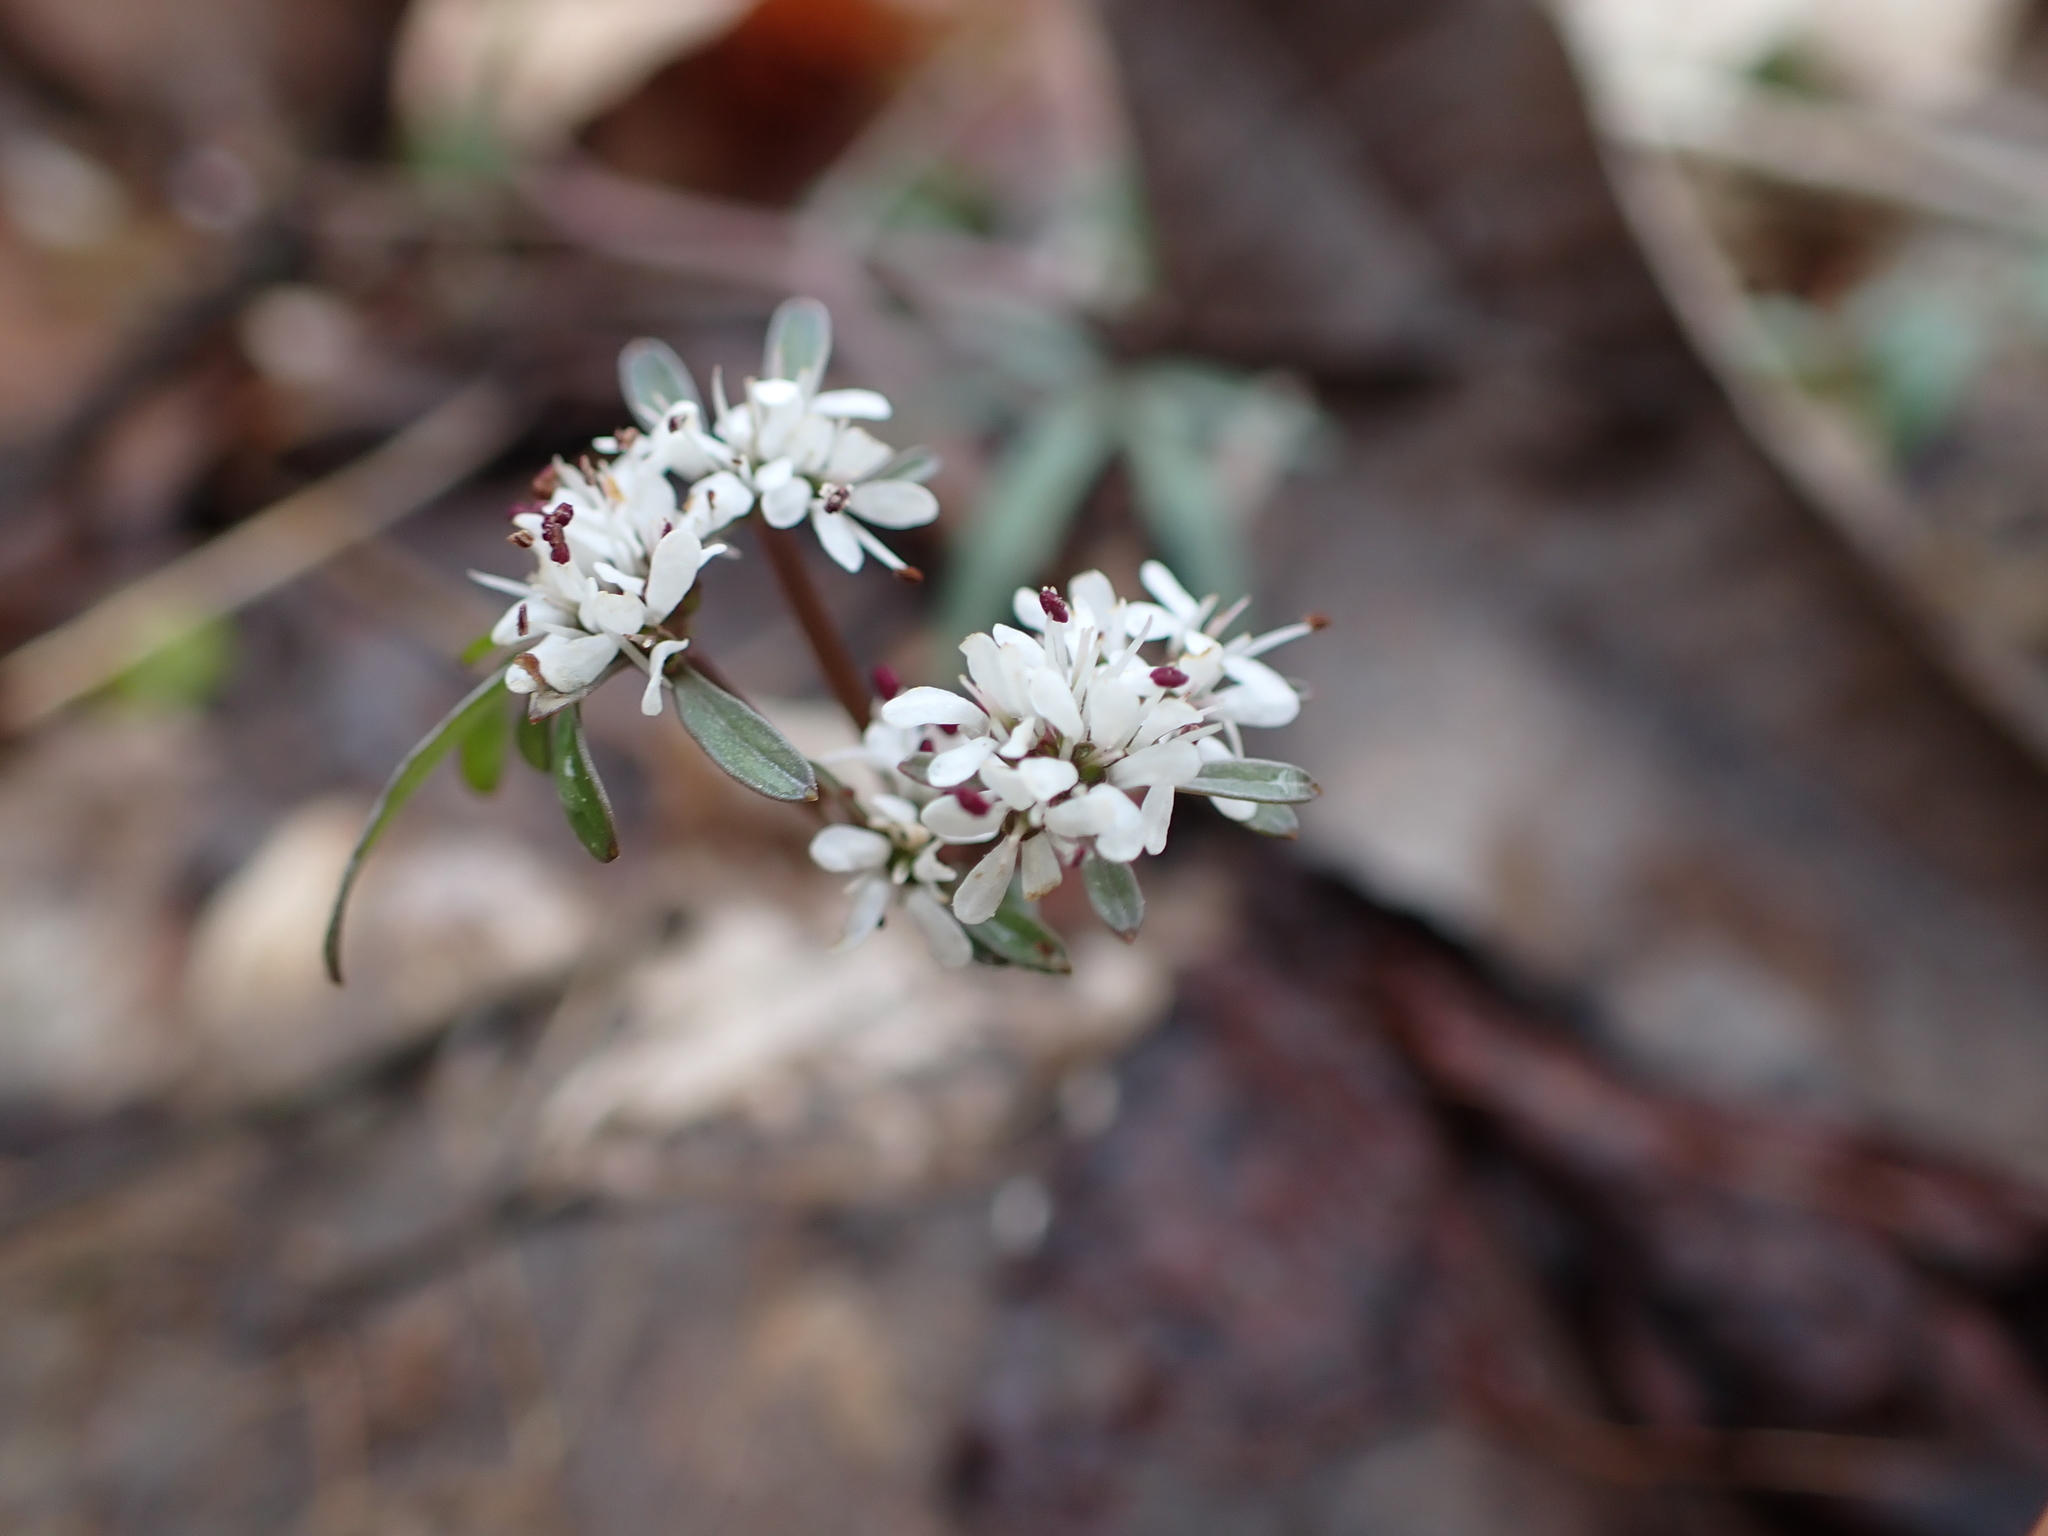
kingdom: Plantae
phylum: Tracheophyta
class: Magnoliopsida
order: Apiales
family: Apiaceae
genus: Erigenia
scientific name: Erigenia bulbosa
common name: Pepper-and-salt
